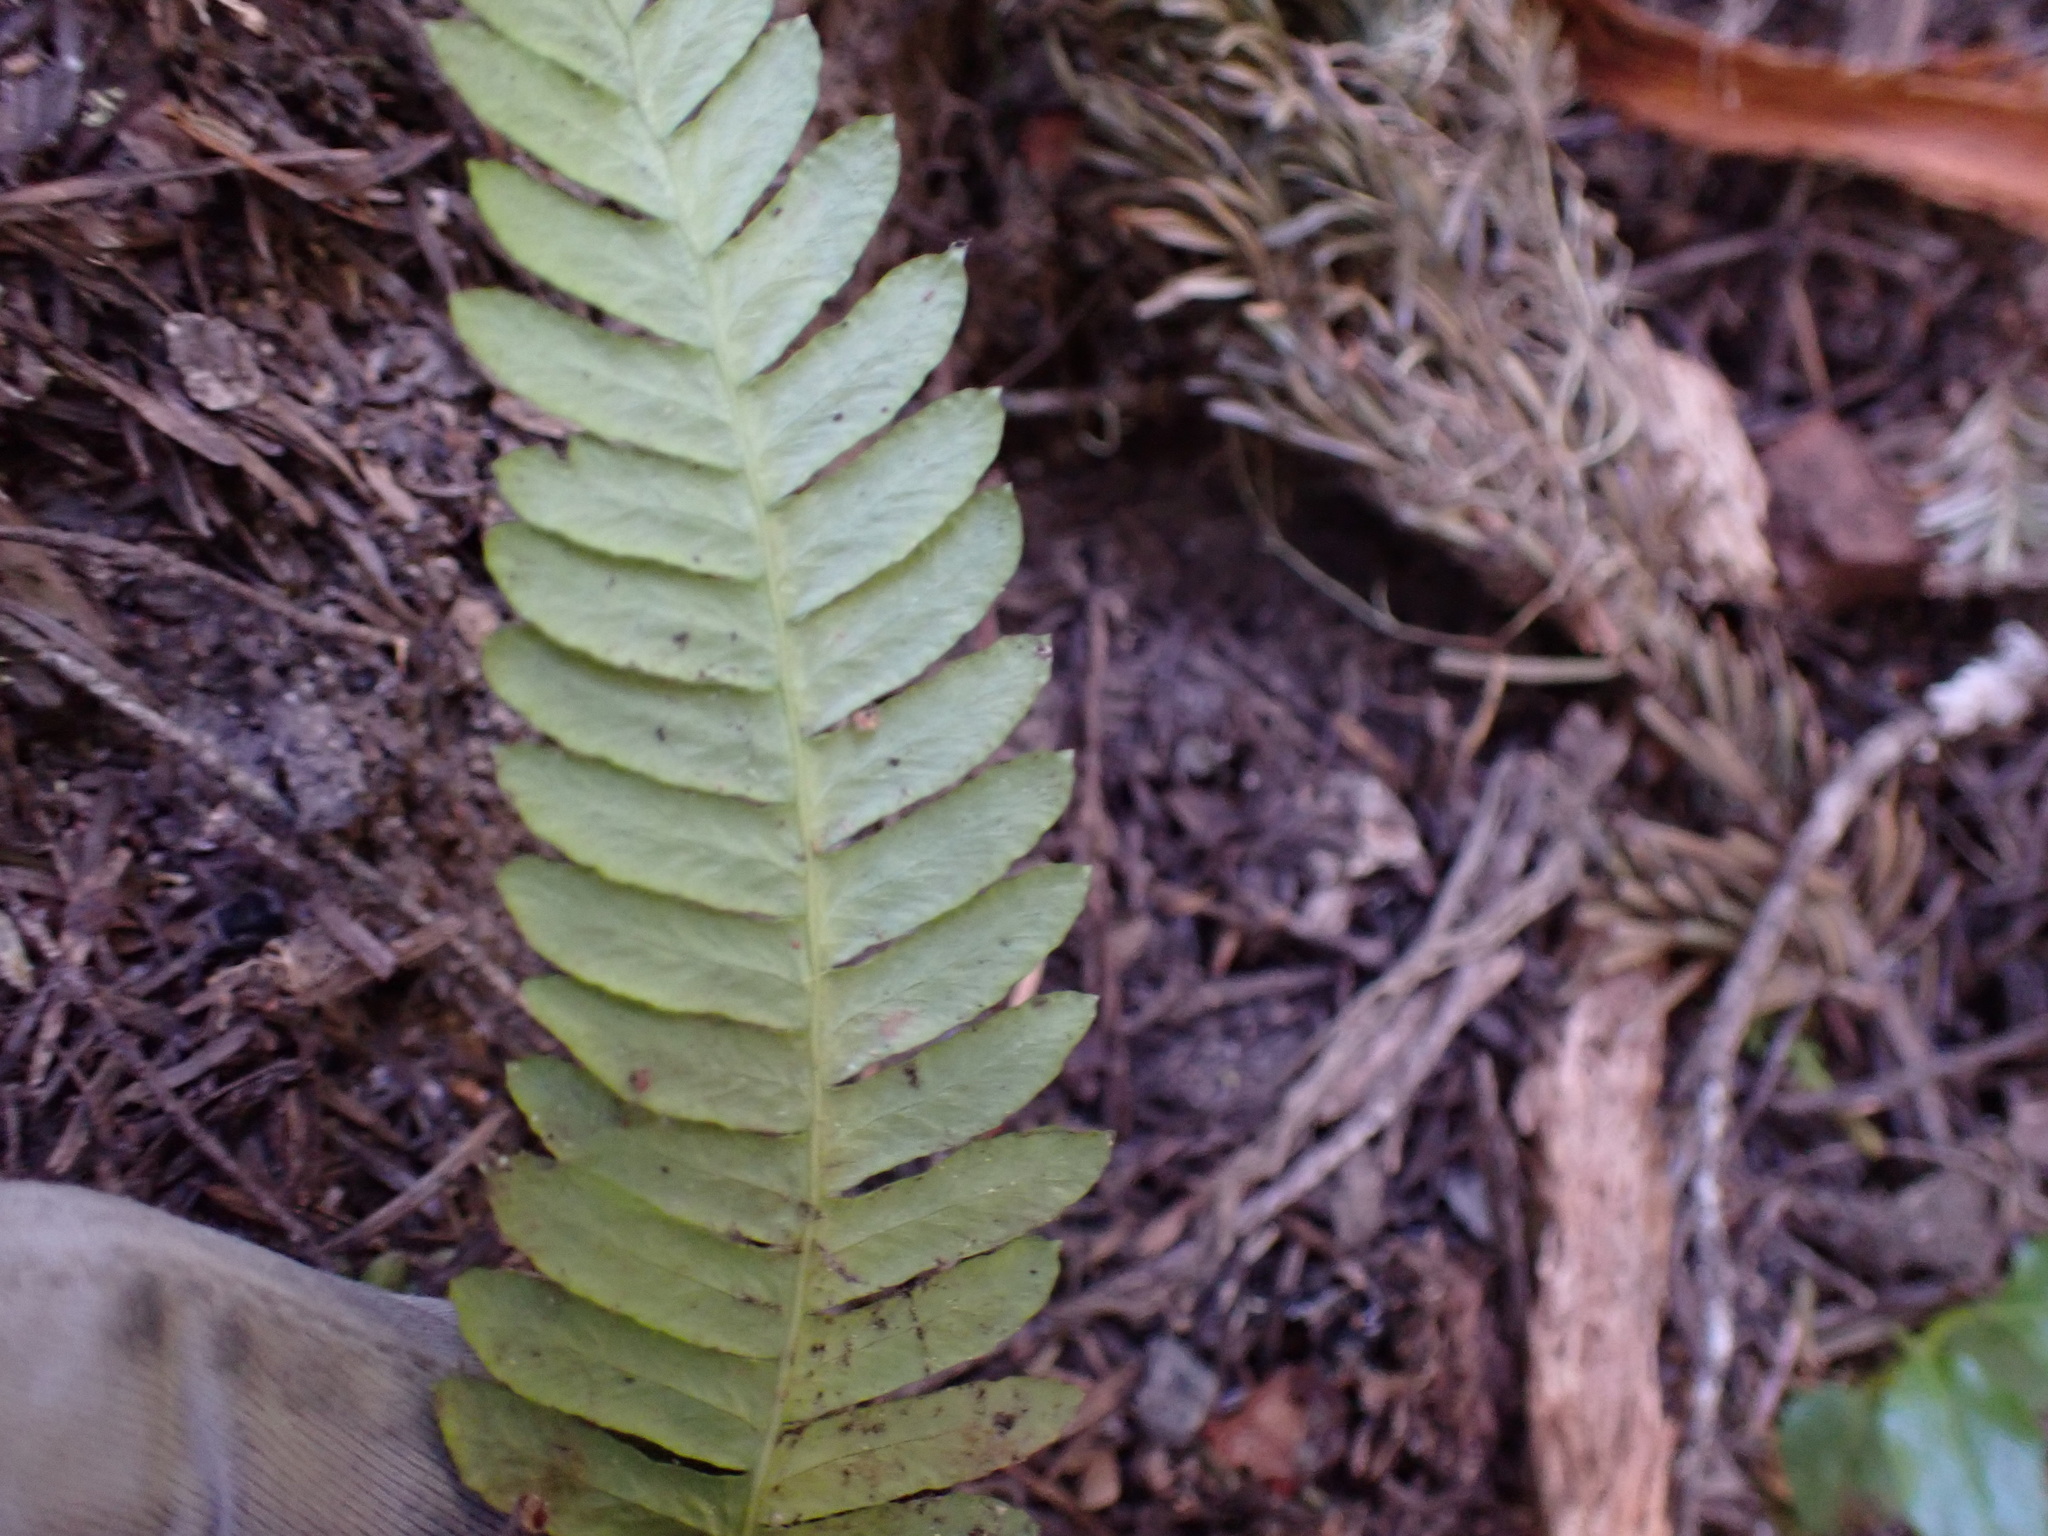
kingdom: Plantae
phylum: Tracheophyta
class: Polypodiopsida
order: Polypodiales
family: Blechnaceae
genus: Struthiopteris
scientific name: Struthiopteris spicant
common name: Deer fern
